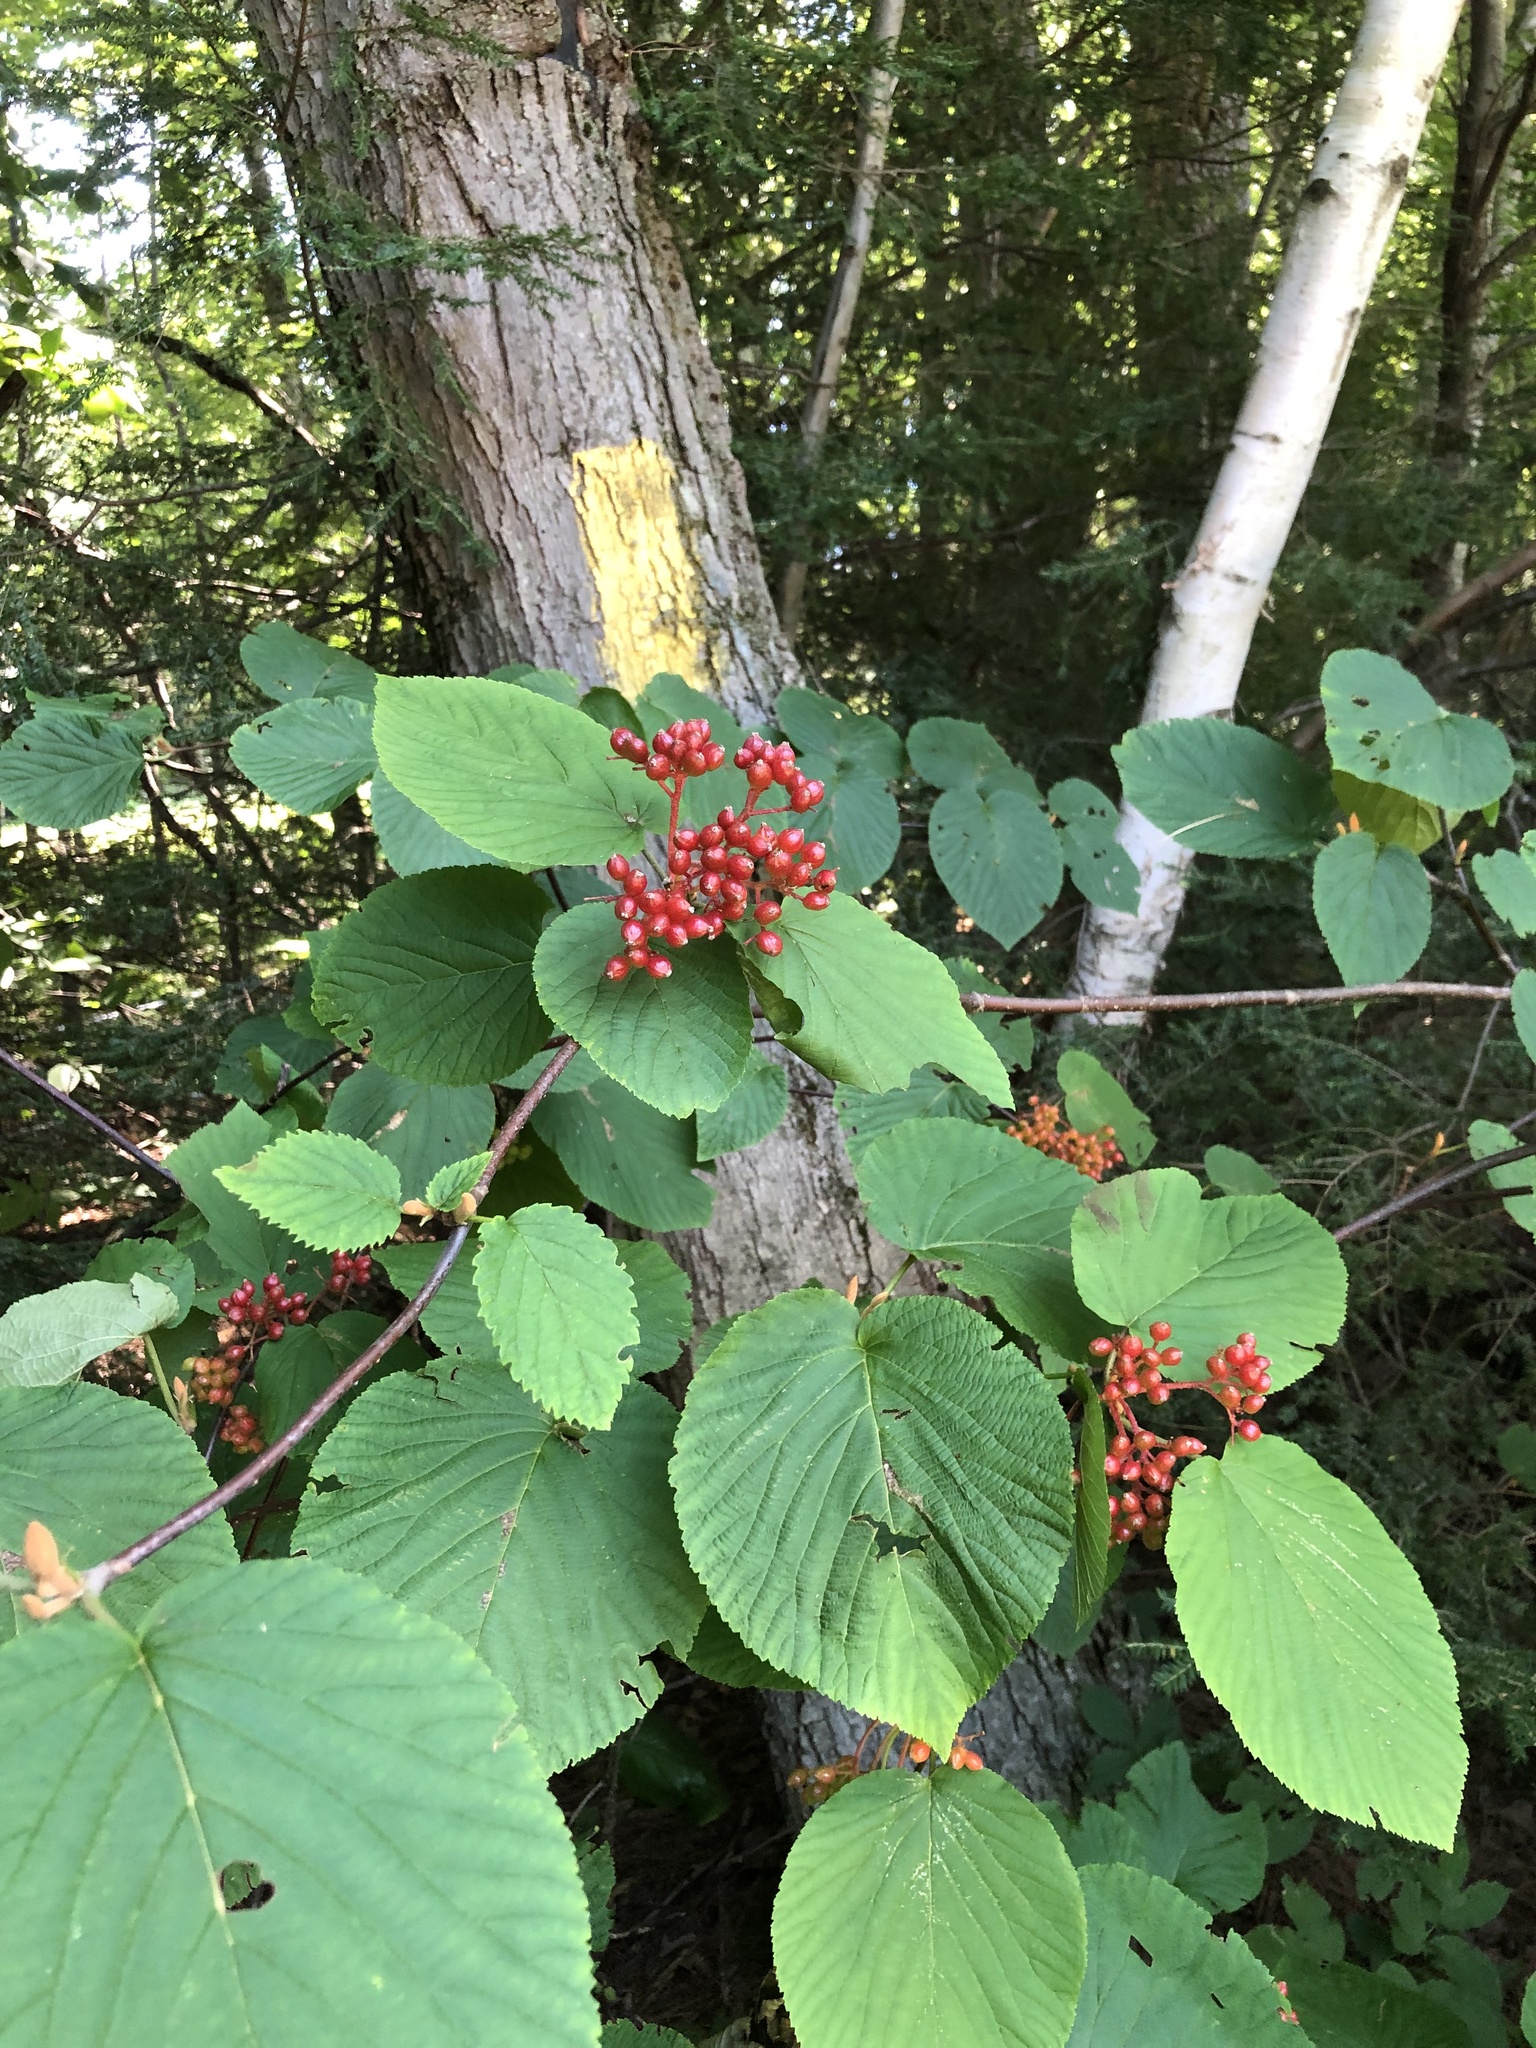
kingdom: Plantae
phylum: Tracheophyta
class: Magnoliopsida
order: Dipsacales
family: Viburnaceae
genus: Viburnum
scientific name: Viburnum lantanoides
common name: Hobblebush
